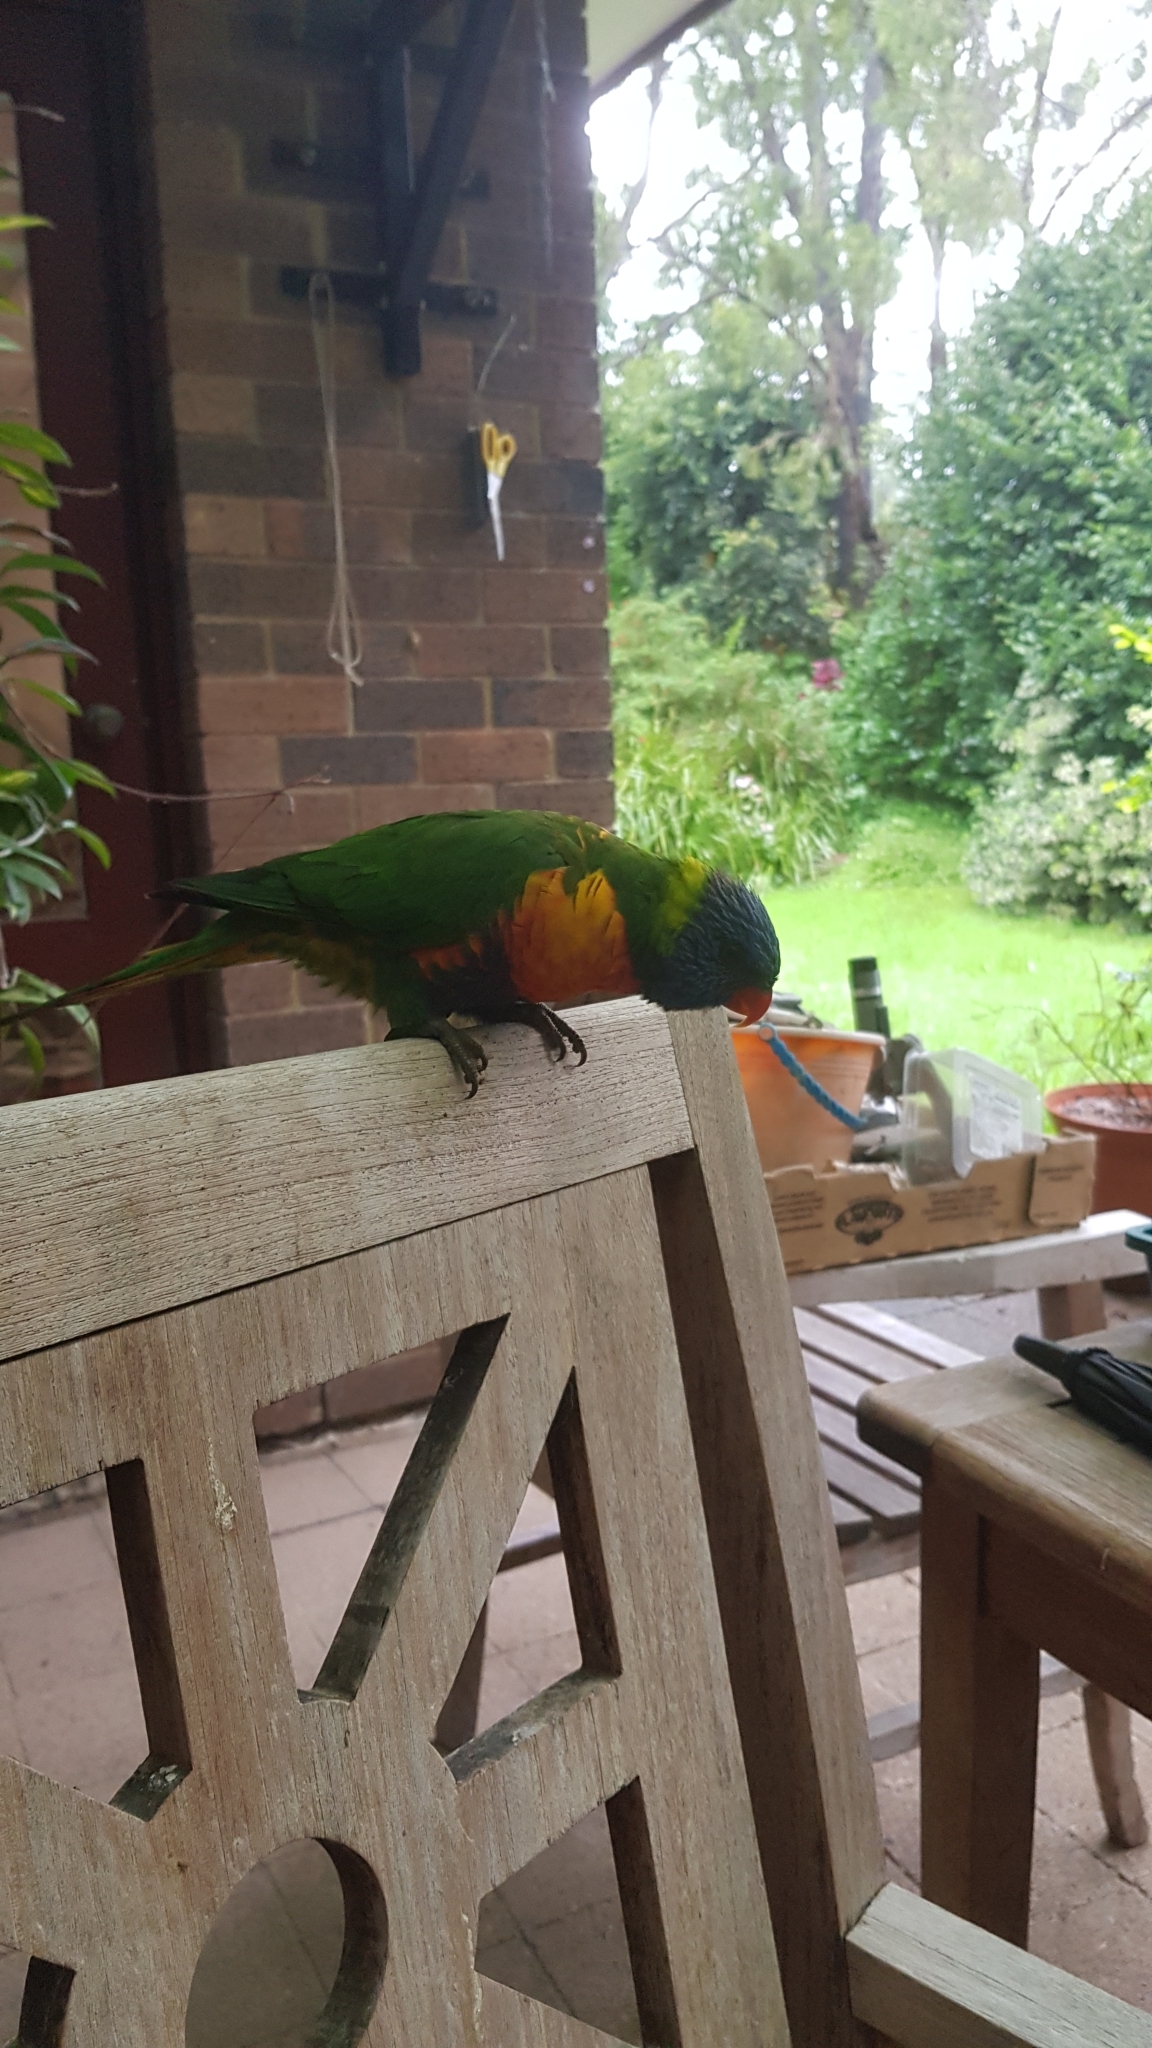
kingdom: Animalia
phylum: Chordata
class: Aves
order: Psittaciformes
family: Psittacidae
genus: Trichoglossus
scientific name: Trichoglossus haematodus
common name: Coconut lorikeet
